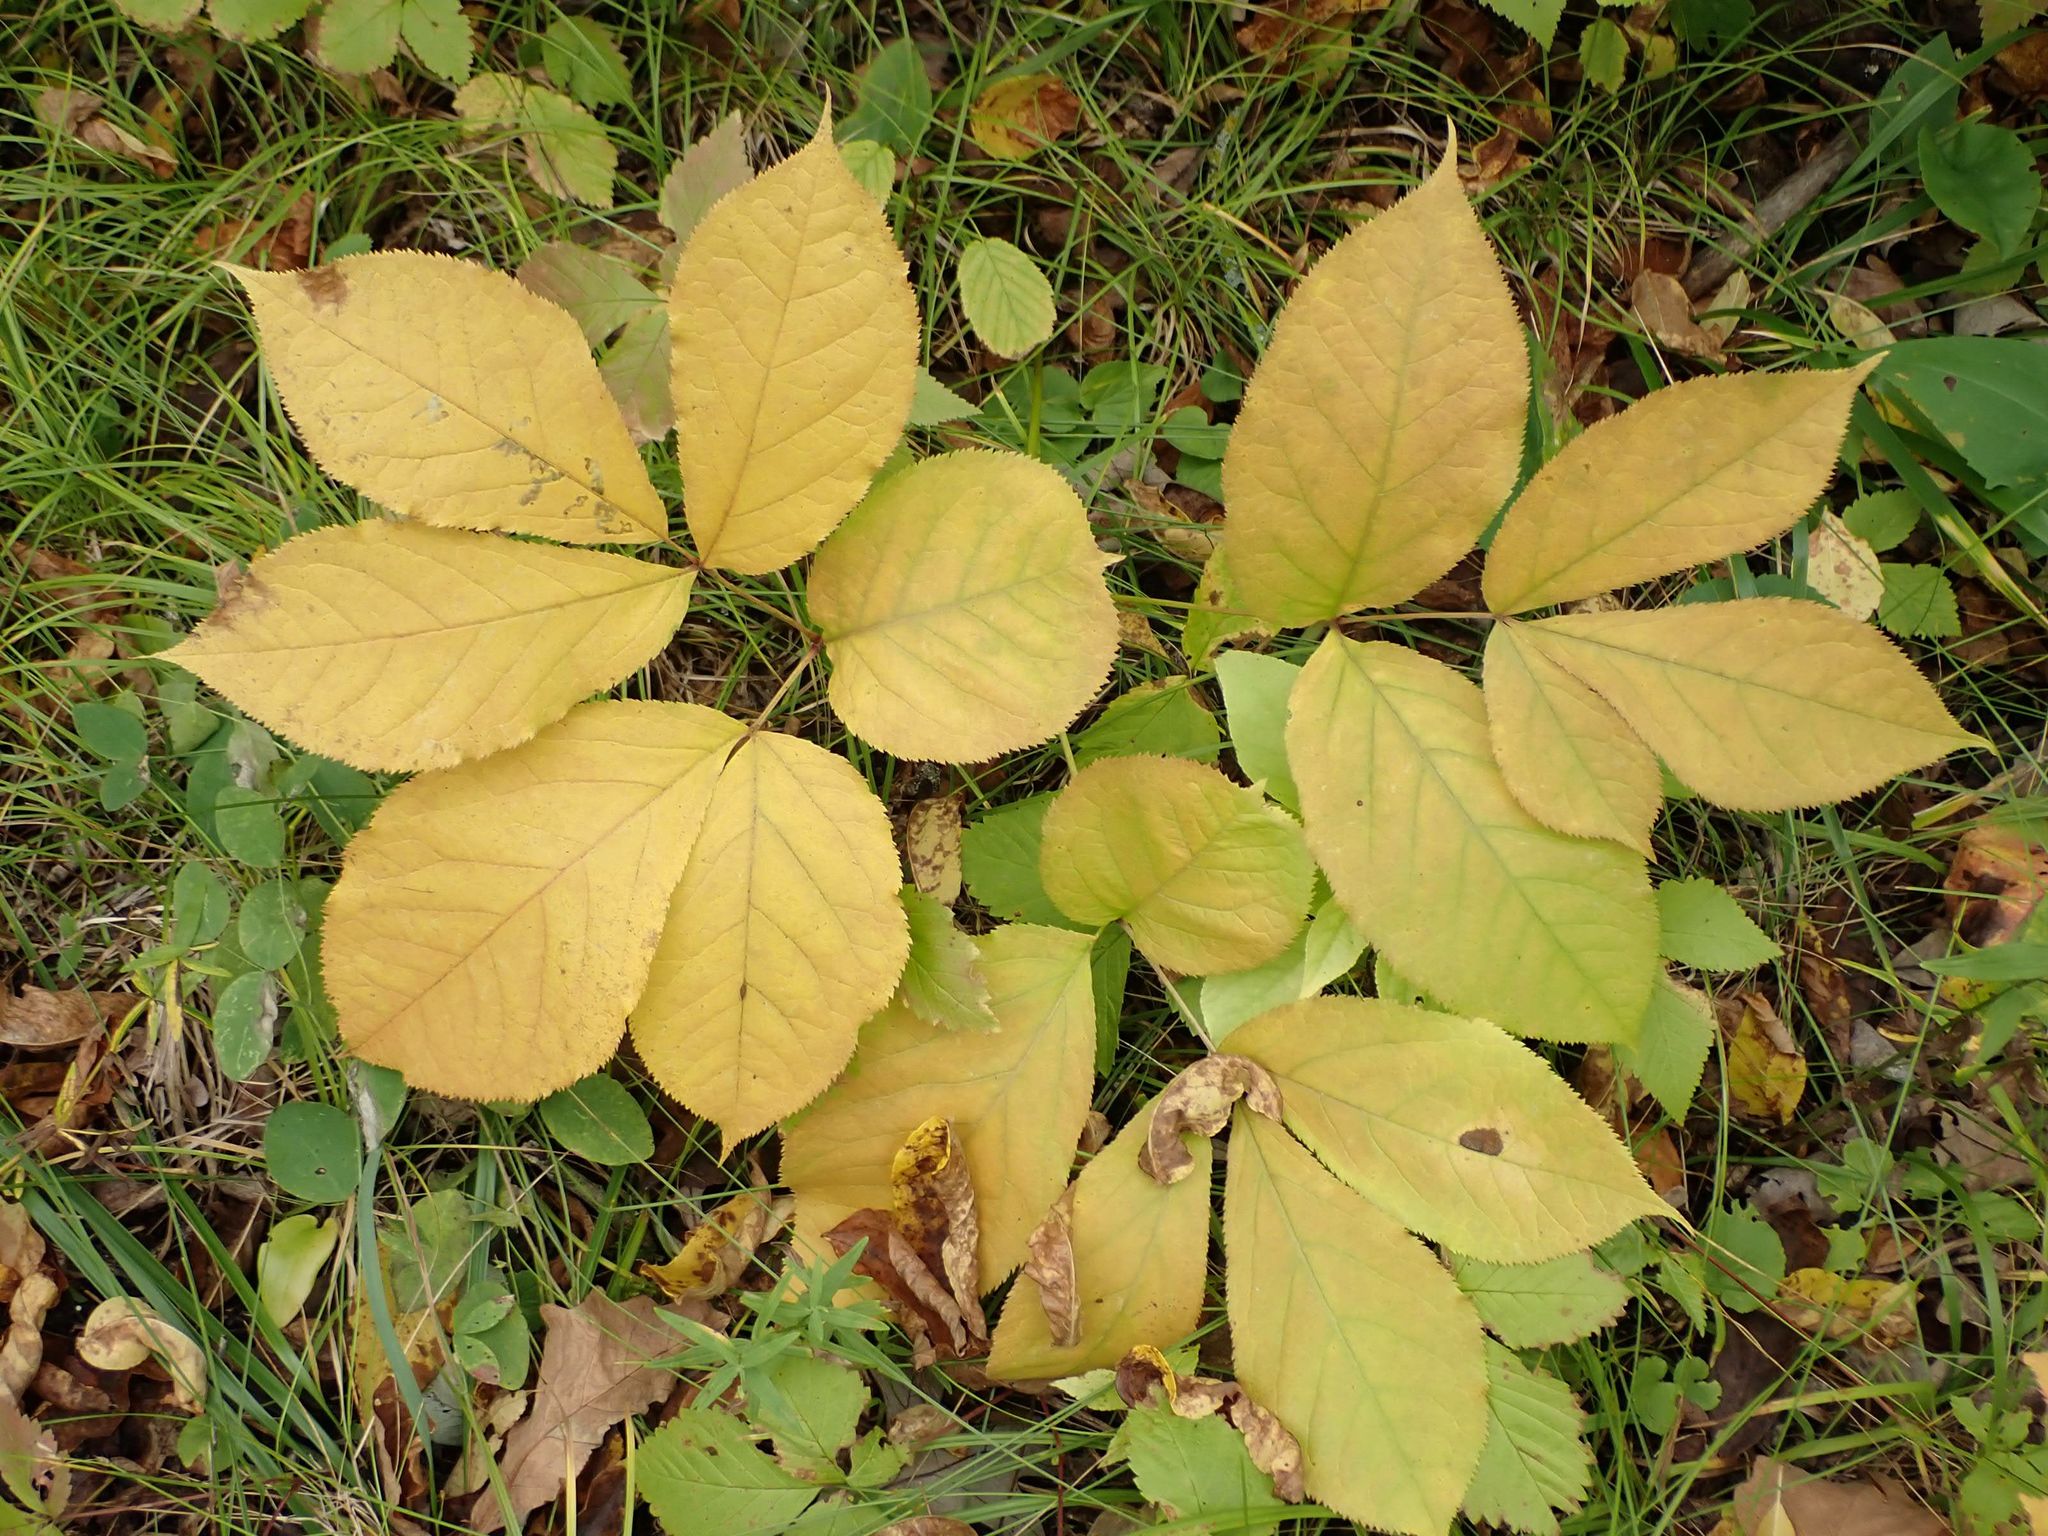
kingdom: Plantae
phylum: Tracheophyta
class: Magnoliopsida
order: Apiales
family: Araliaceae
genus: Aralia
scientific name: Aralia nudicaulis
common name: Wild sarsaparilla
